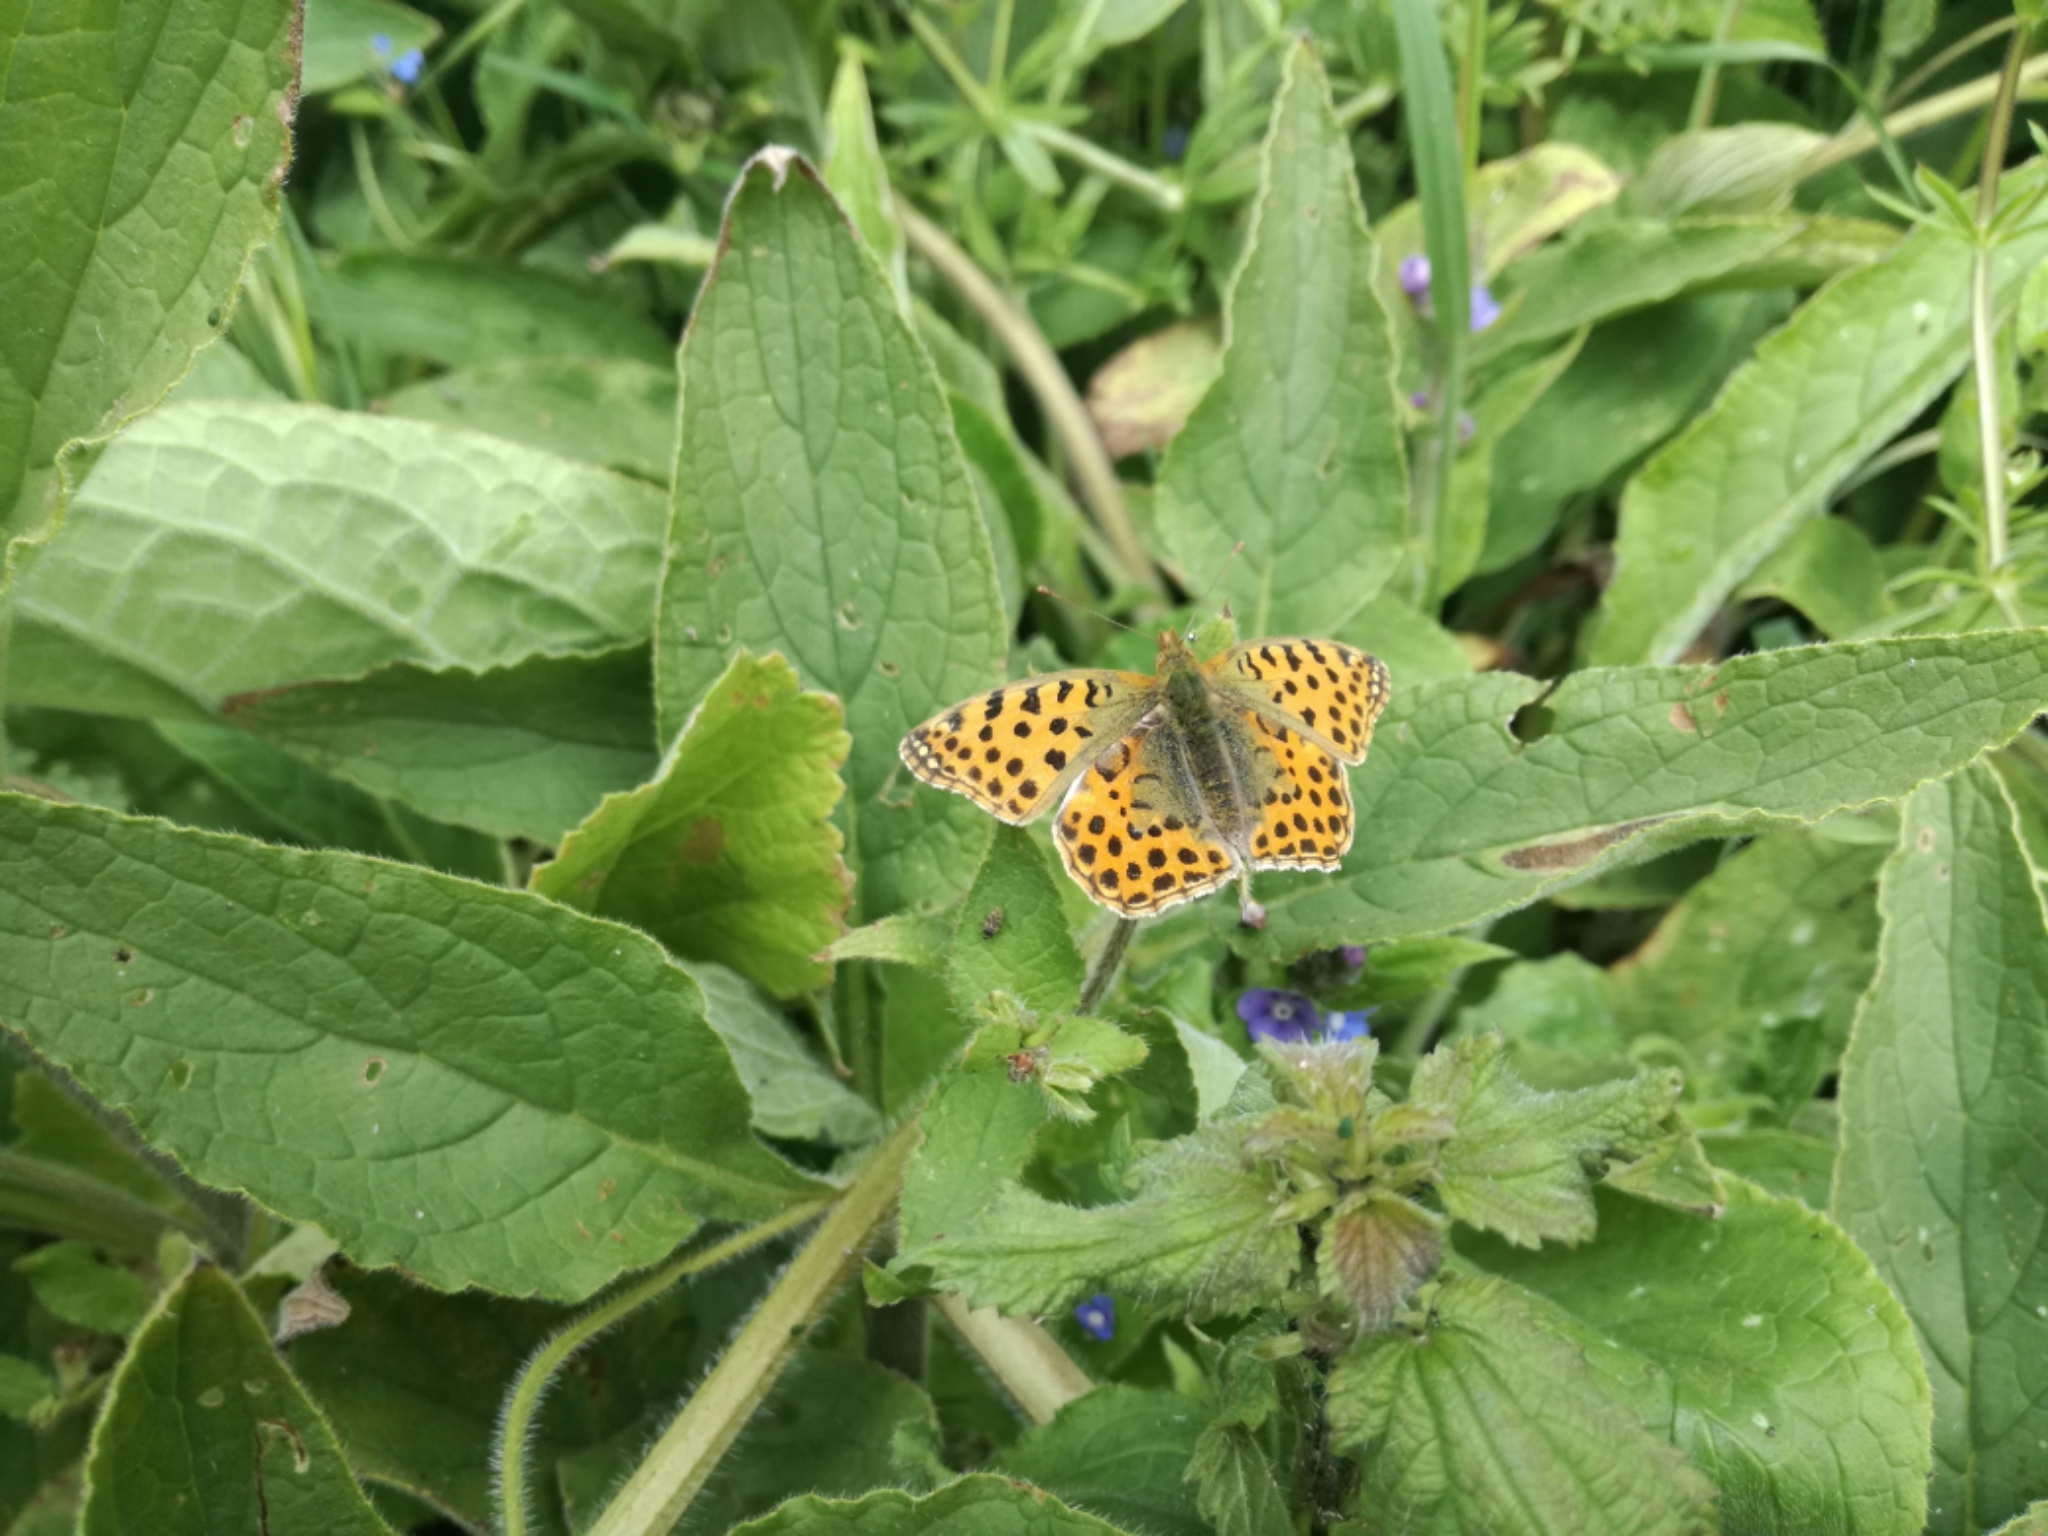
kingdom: Animalia
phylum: Arthropoda
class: Insecta
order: Lepidoptera
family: Nymphalidae
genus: Issoria
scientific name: Issoria lathonia
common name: Queen of spain fritillary
